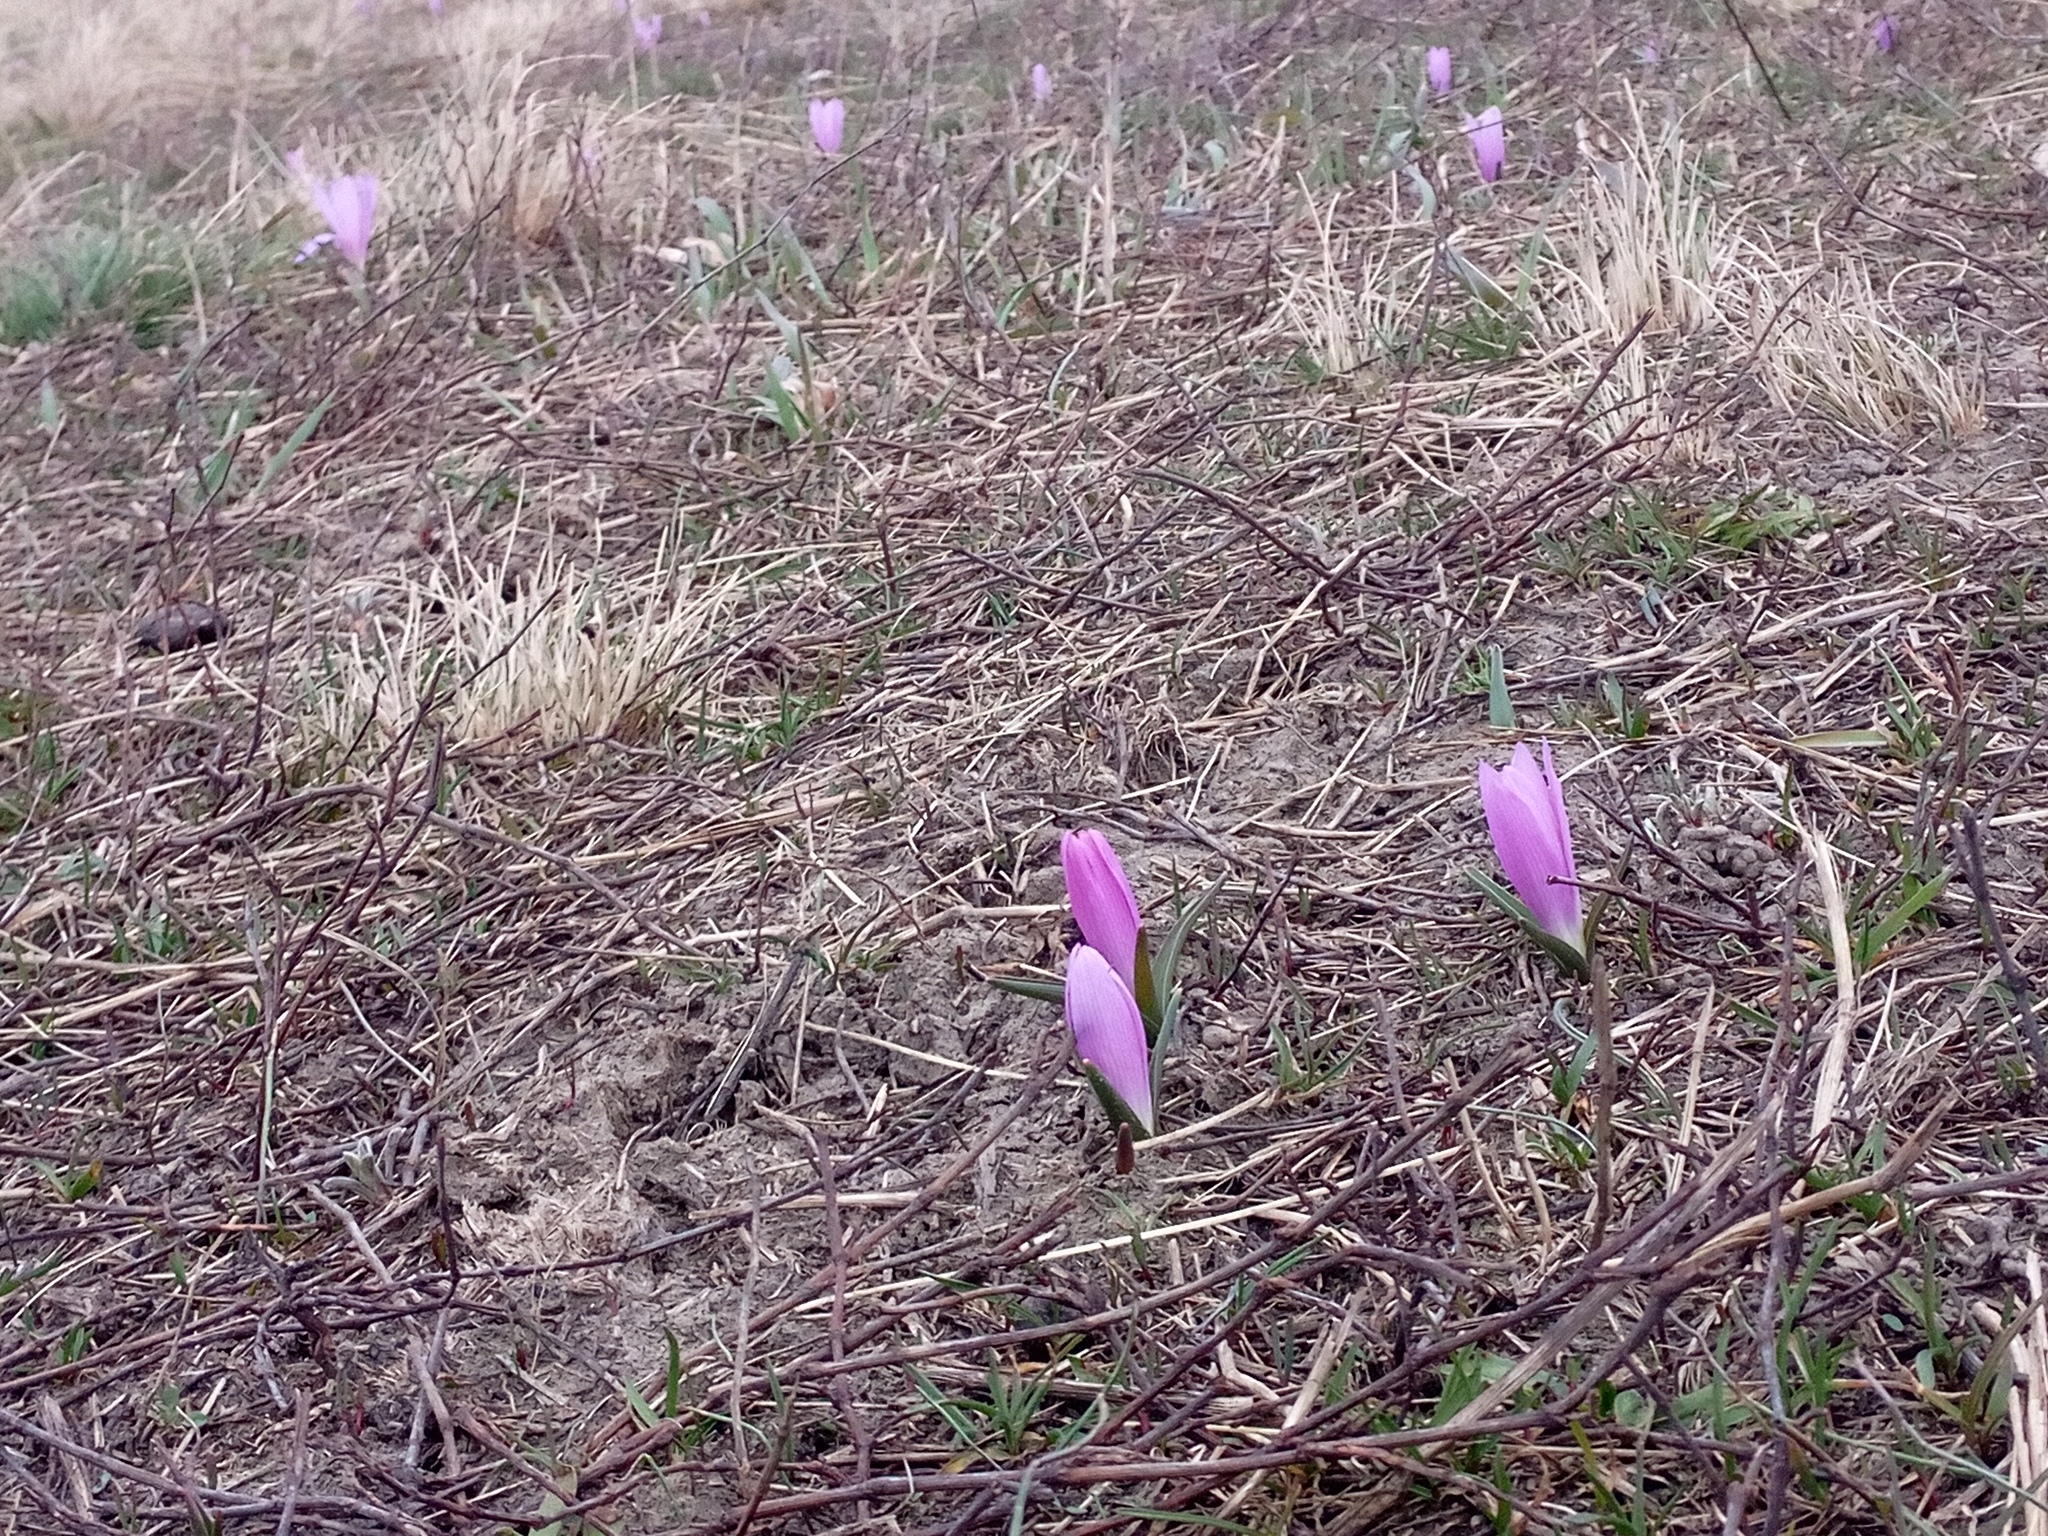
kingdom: Plantae
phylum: Tracheophyta
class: Liliopsida
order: Liliales
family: Colchicaceae
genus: Colchicum
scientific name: Colchicum bulbocodium
